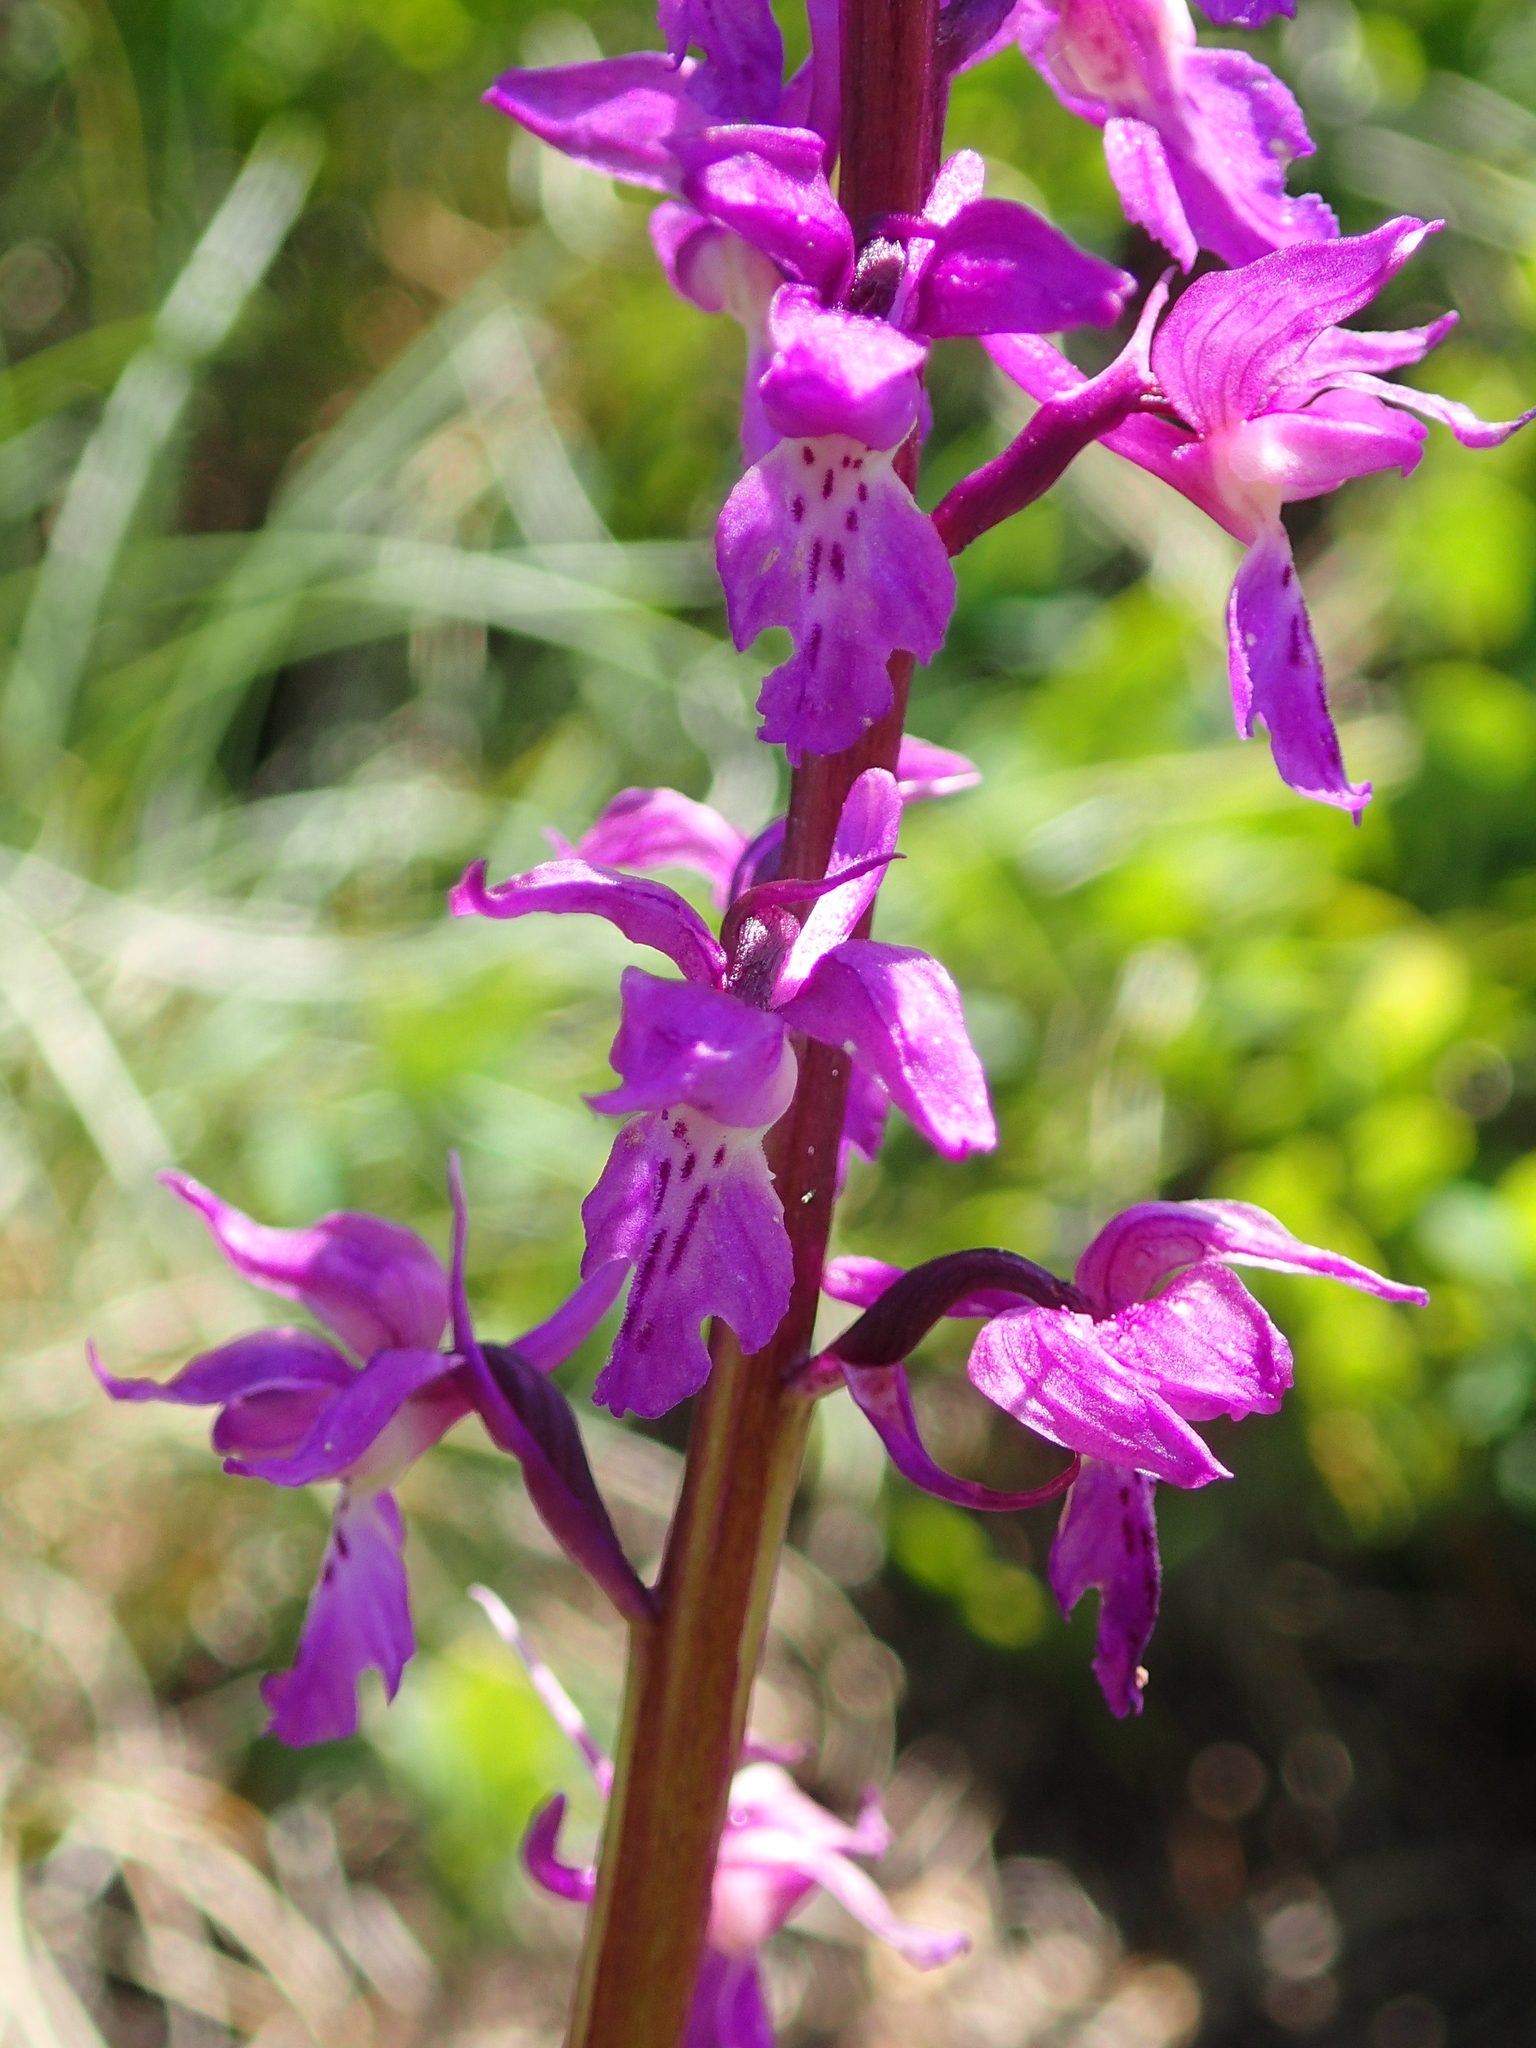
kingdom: Plantae
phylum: Tracheophyta
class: Liliopsida
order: Asparagales
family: Orchidaceae
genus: Orchis
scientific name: Orchis mascula
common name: Early-purple orchid
